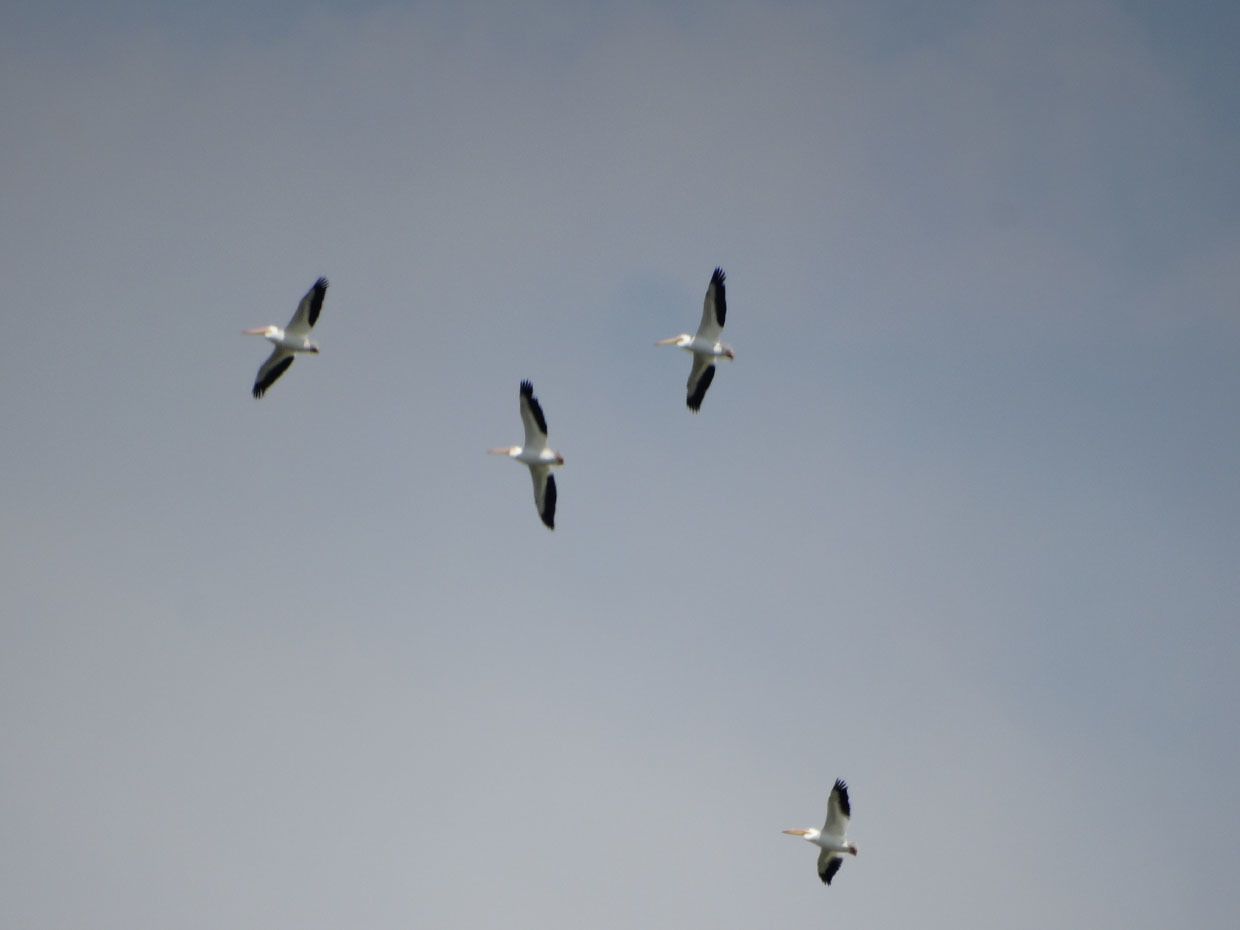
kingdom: Animalia
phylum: Chordata
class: Aves
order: Pelecaniformes
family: Pelecanidae
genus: Pelecanus
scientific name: Pelecanus erythrorhynchos
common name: American white pelican
